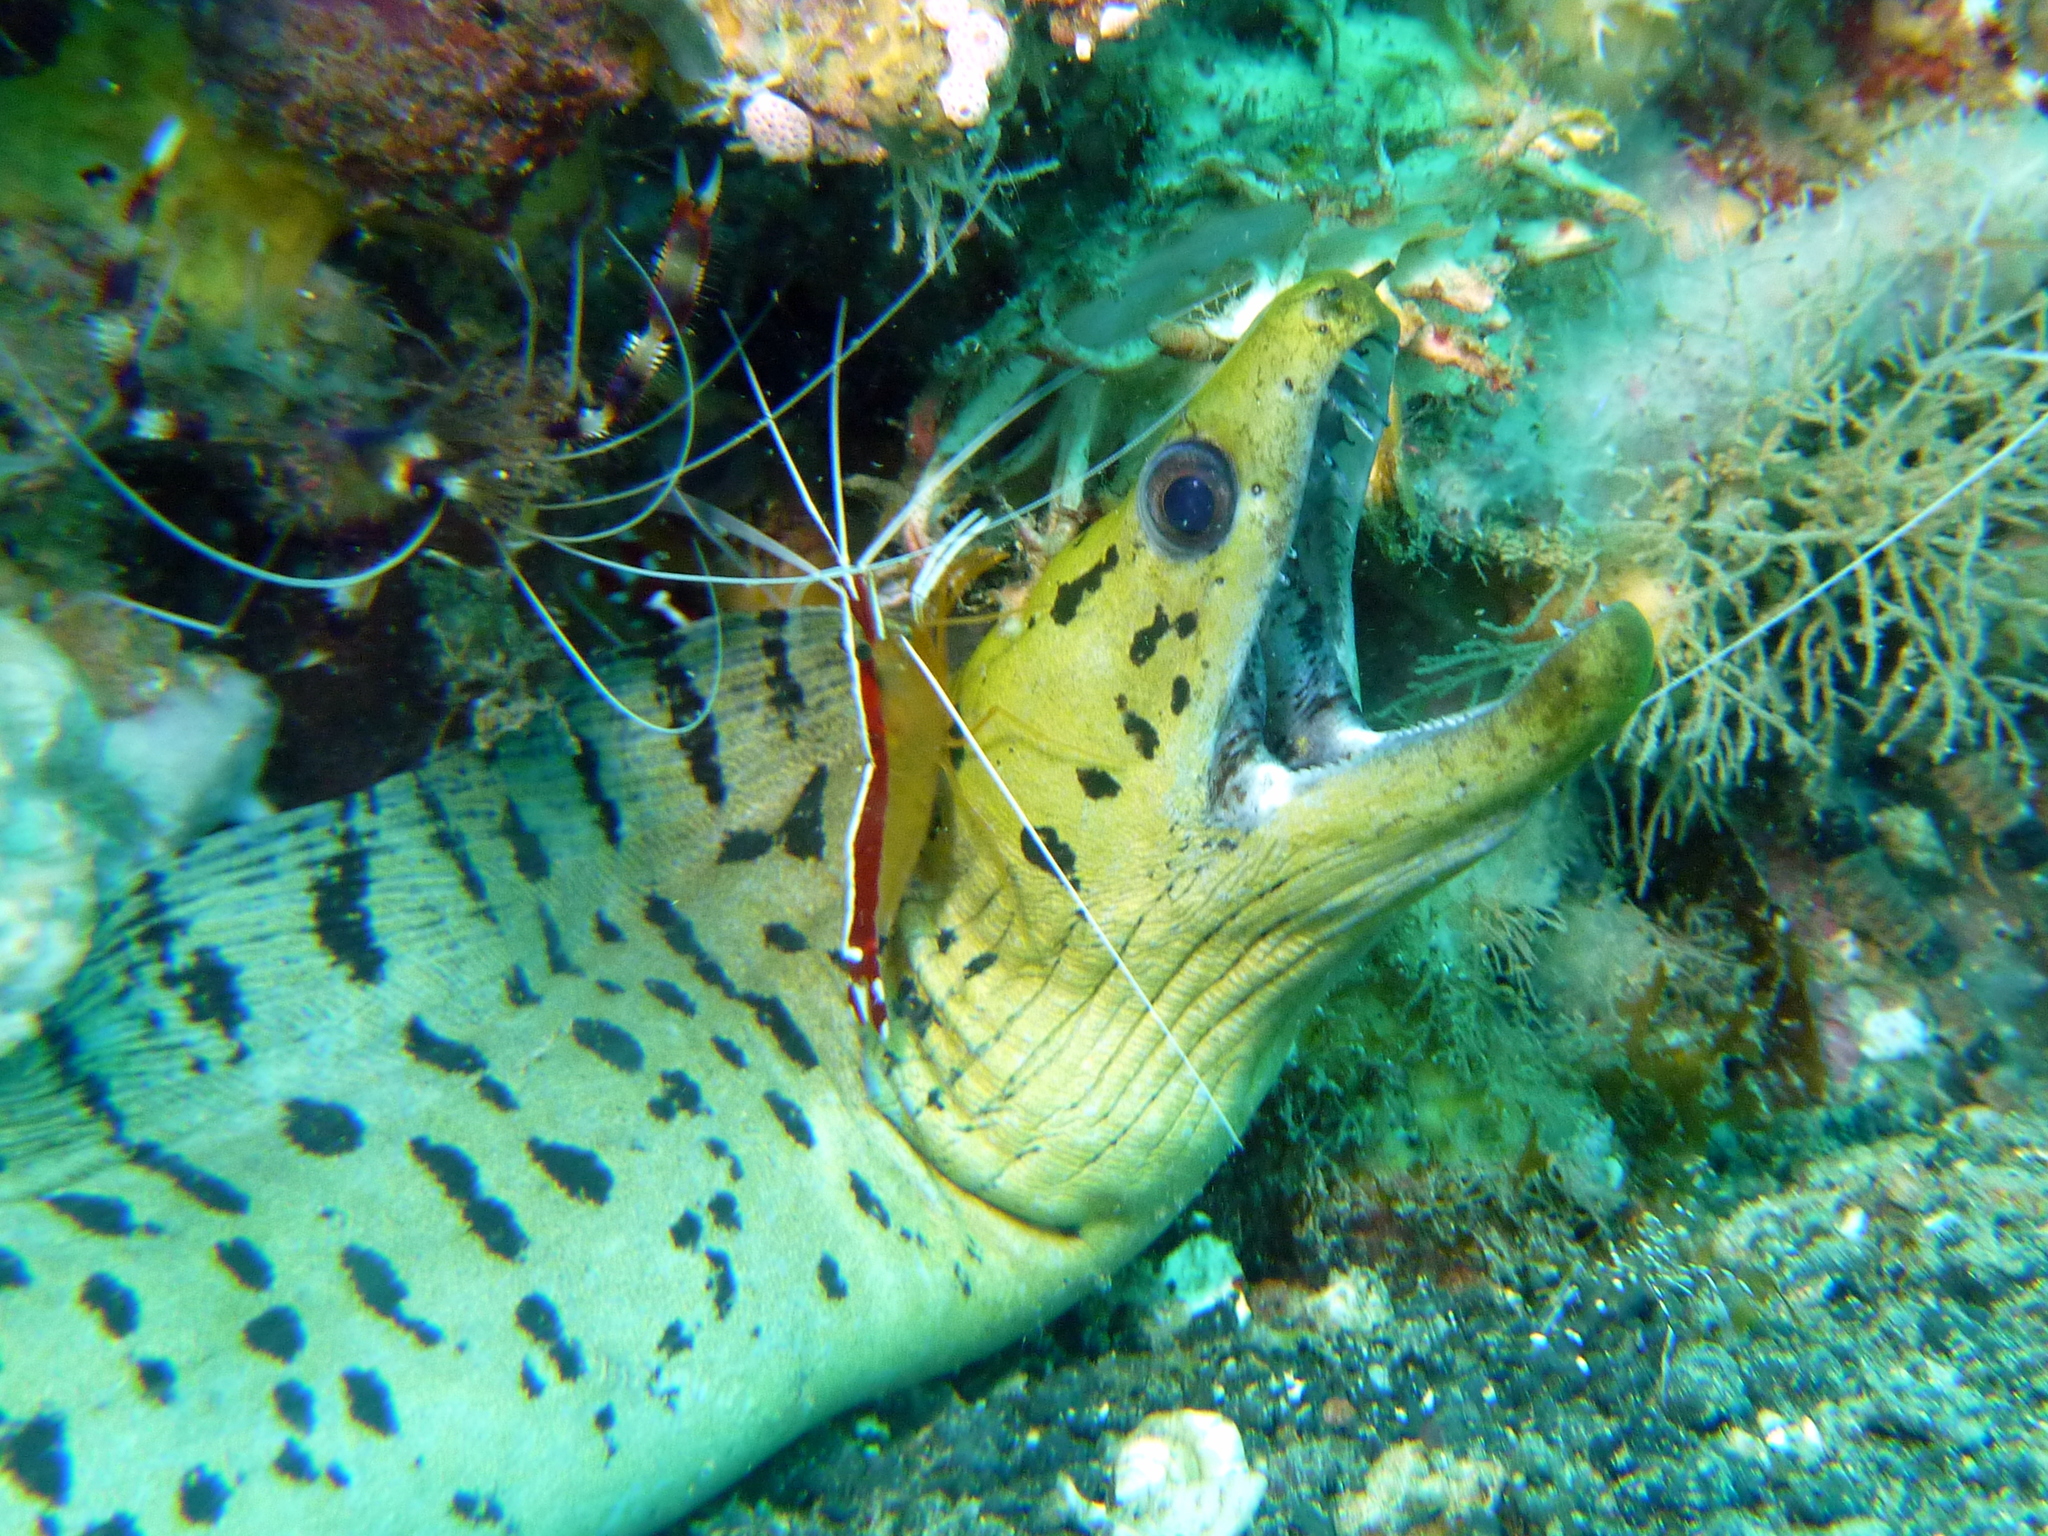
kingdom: Animalia
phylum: Chordata
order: Anguilliformes
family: Muraenidae
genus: Gymnothorax
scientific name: Gymnothorax fimbriatus
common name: Darkspotted moray
